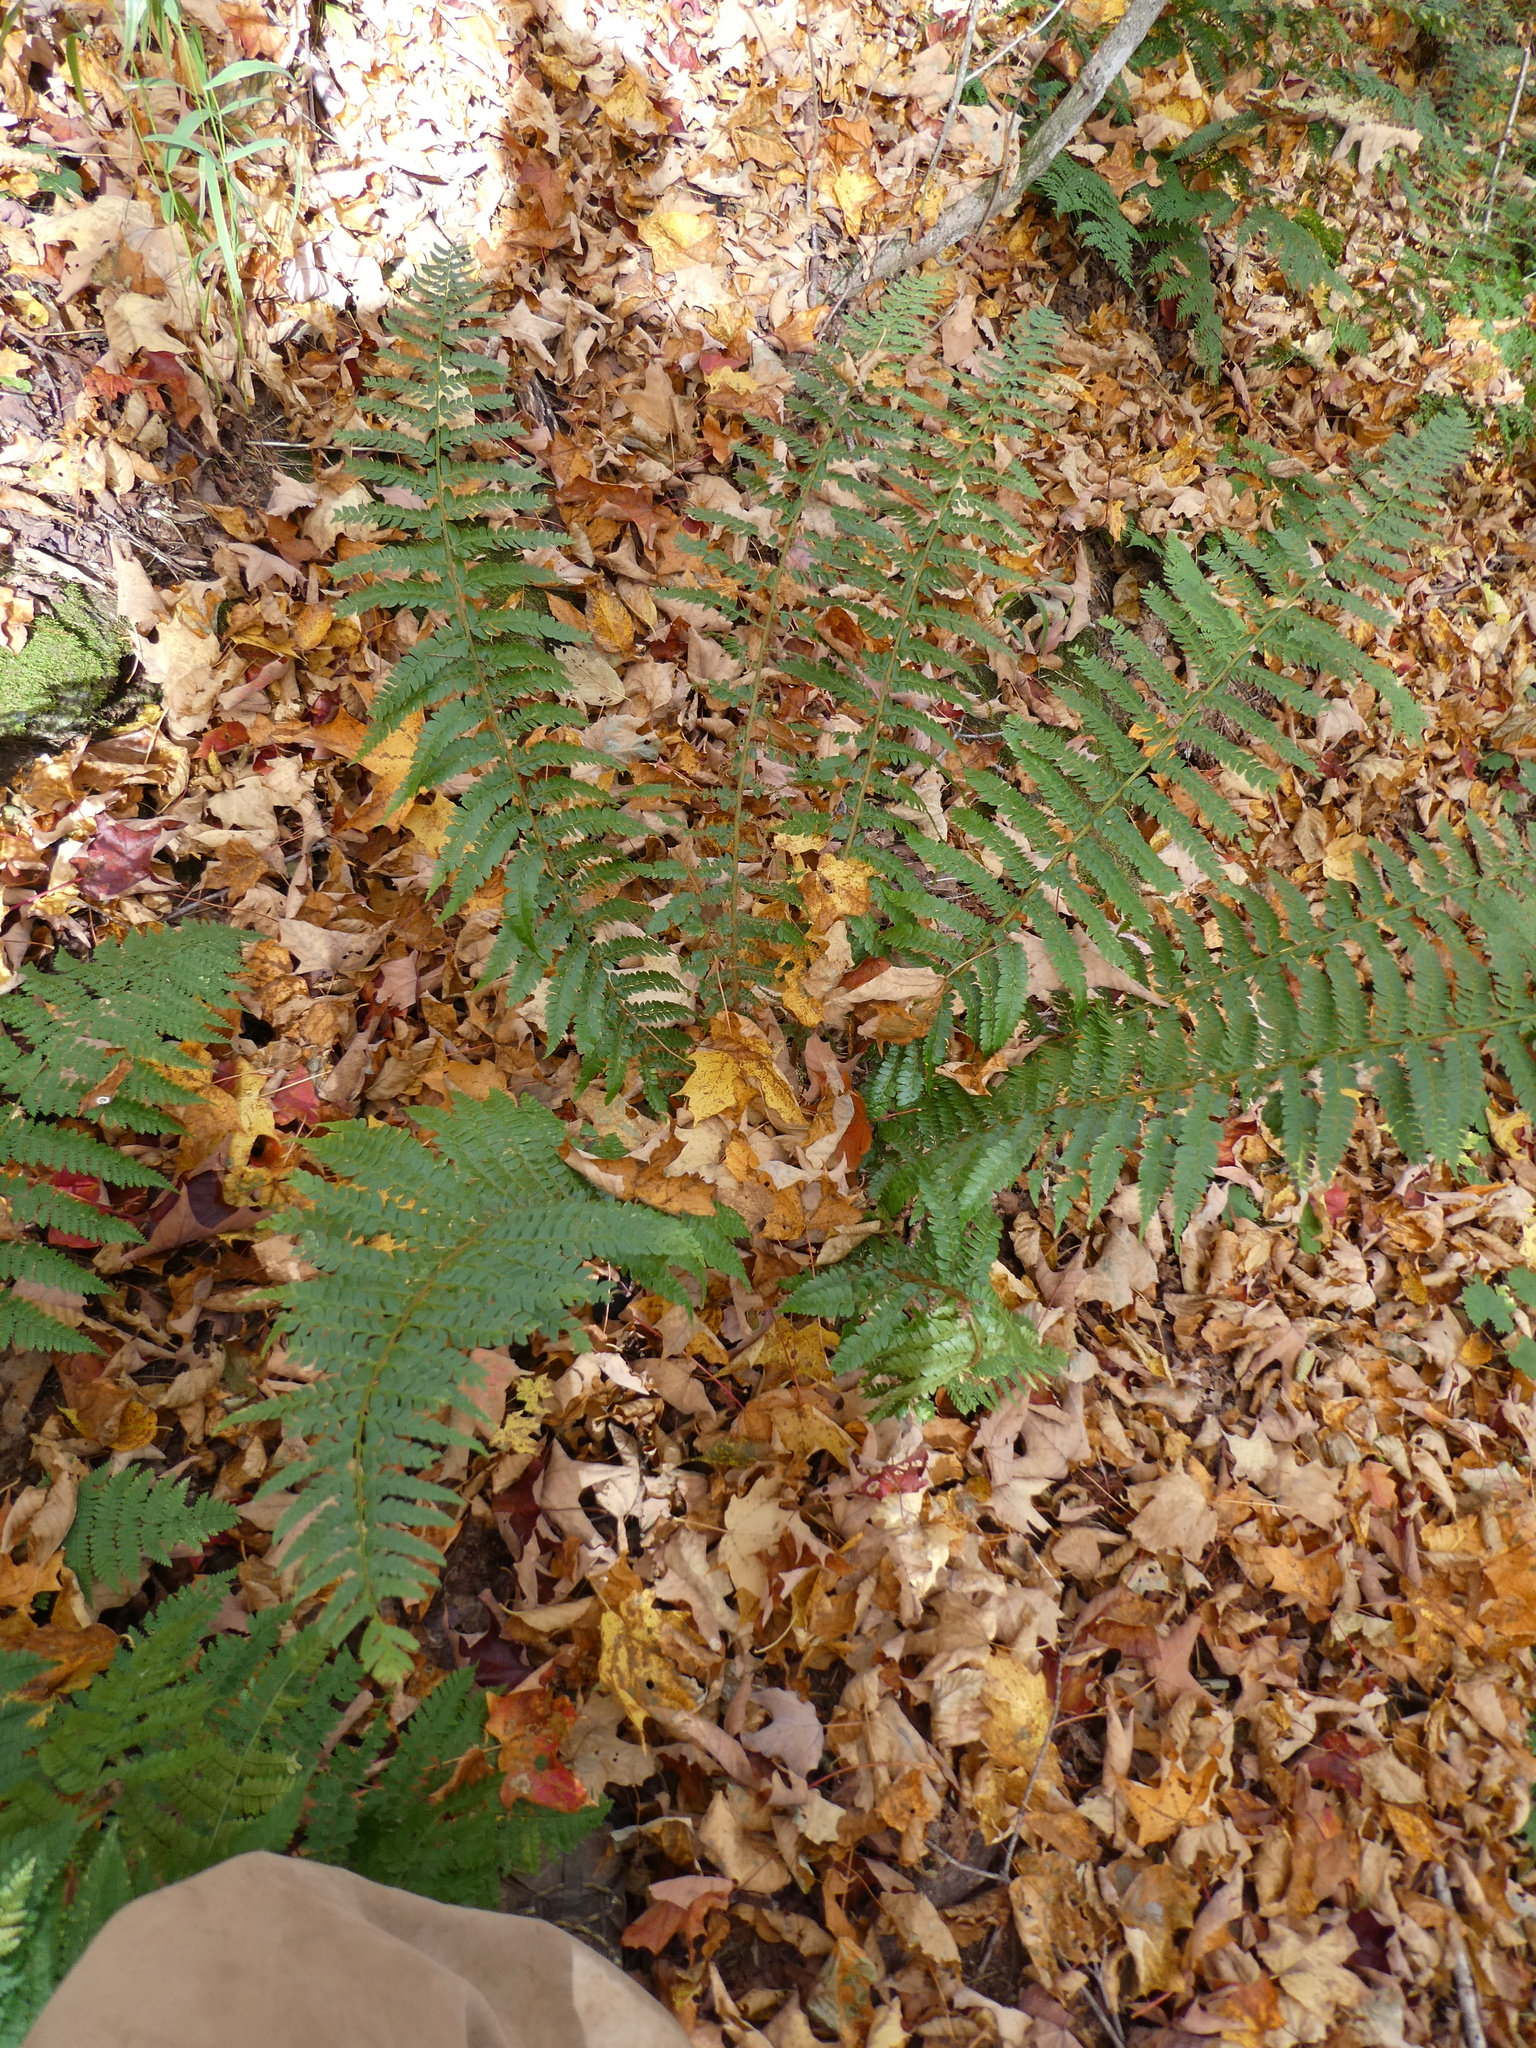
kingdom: Plantae
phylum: Tracheophyta
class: Polypodiopsida
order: Polypodiales
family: Dryopteridaceae
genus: Polystichum
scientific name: Polystichum braunii
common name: Braun's holly fern
